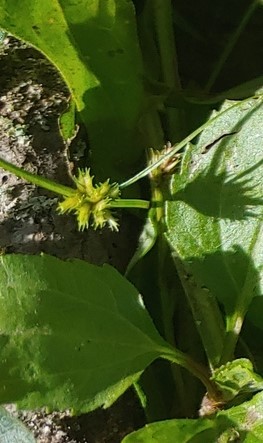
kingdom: Plantae
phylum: Tracheophyta
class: Liliopsida
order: Poales
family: Cyperaceae
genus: Cyperus
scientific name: Cyperus squarrosus
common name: Awned cyperus
